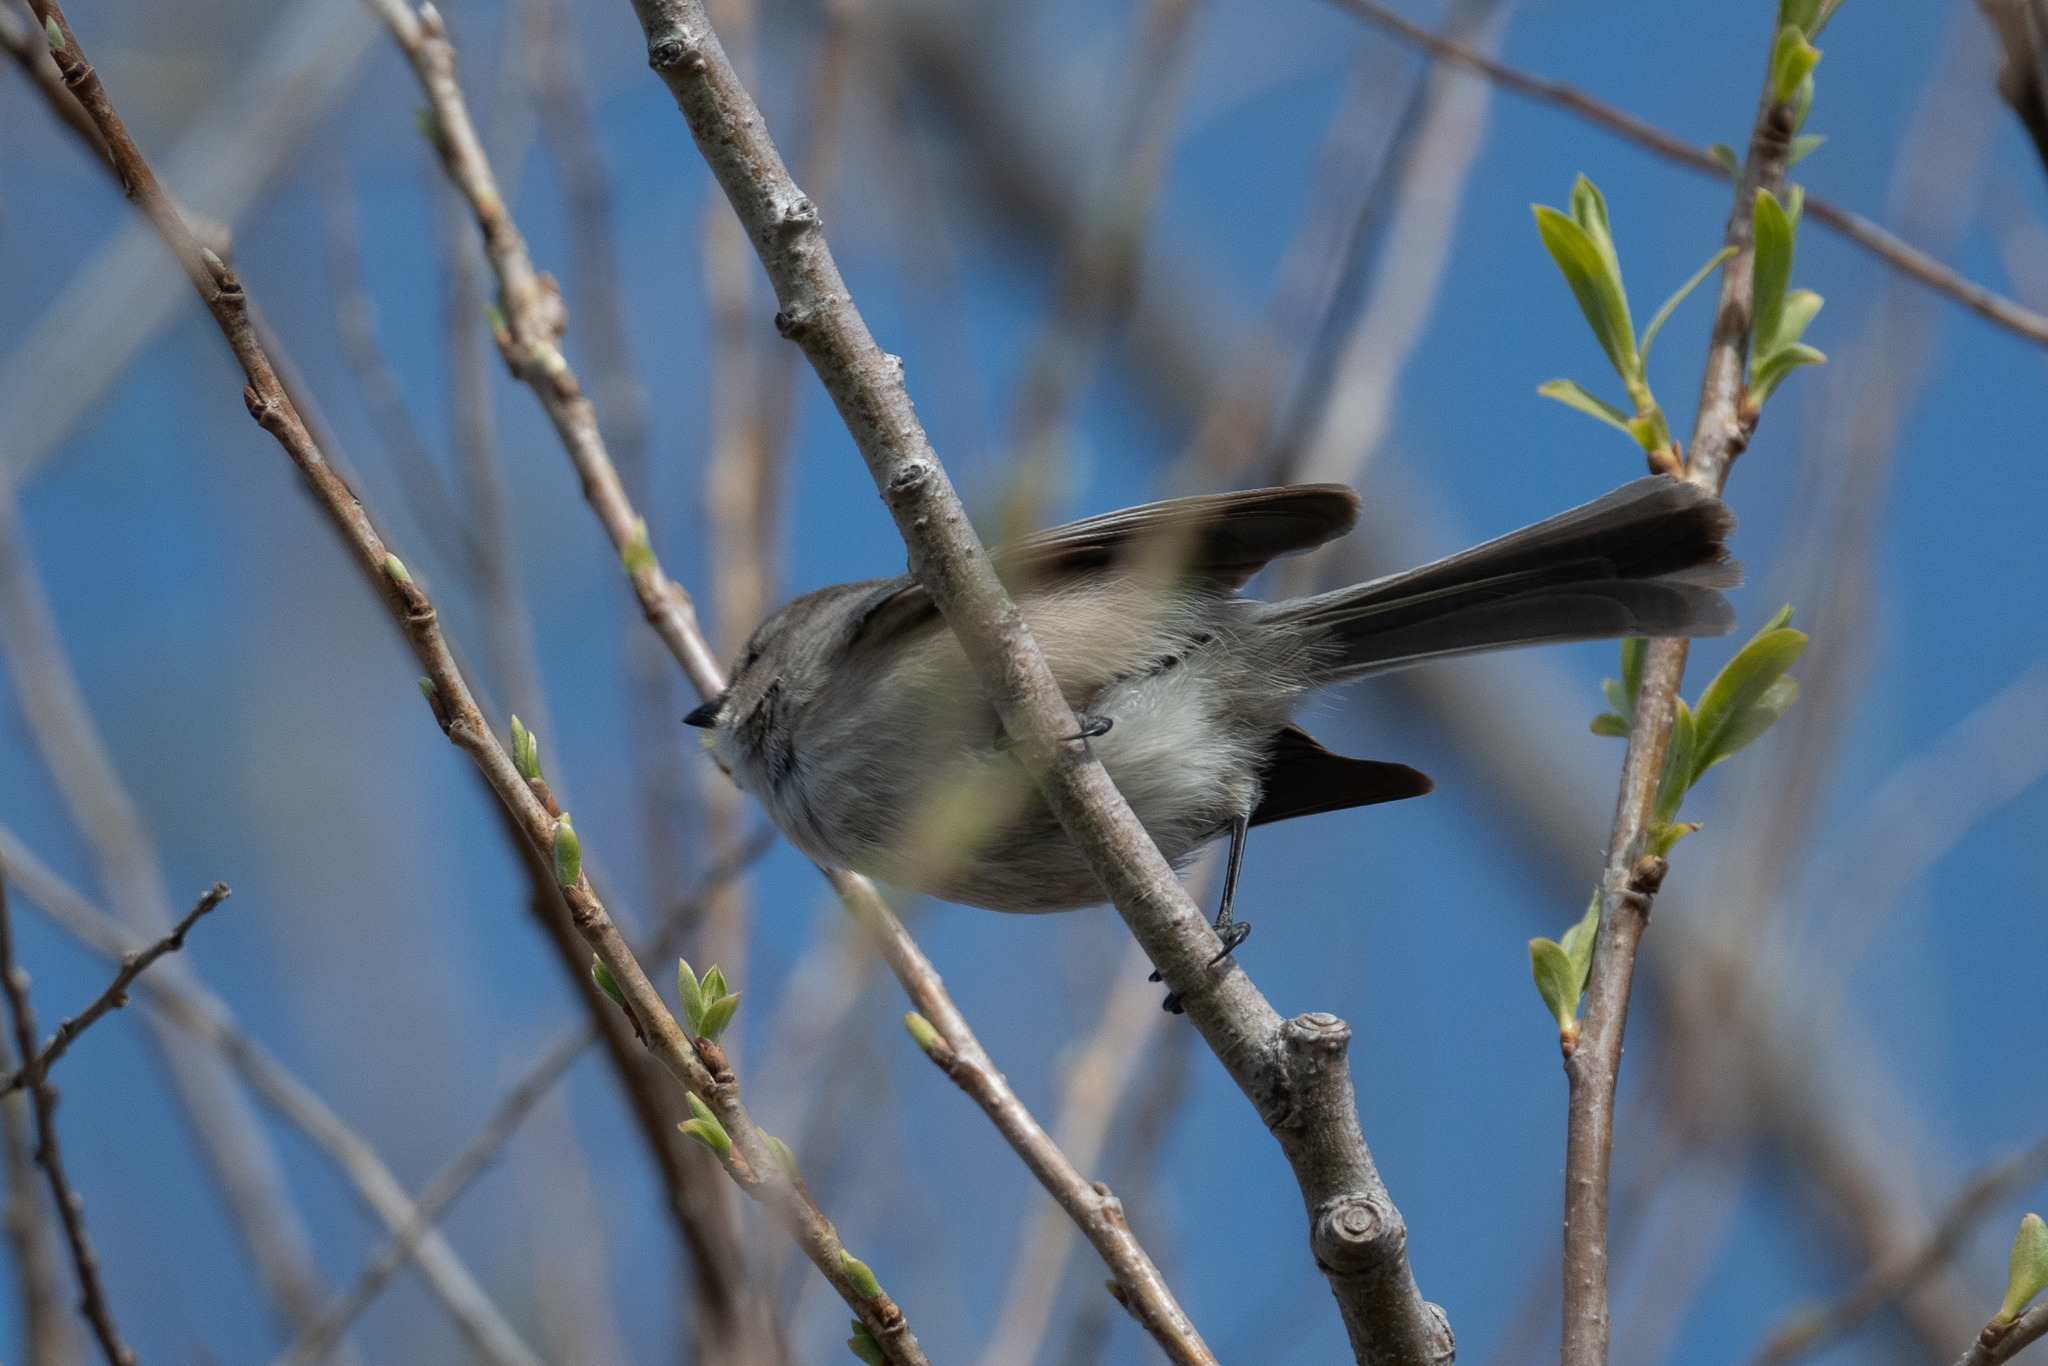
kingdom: Animalia
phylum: Chordata
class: Aves
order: Passeriformes
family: Aegithalidae
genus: Psaltriparus
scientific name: Psaltriparus minimus
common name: American bushtit
